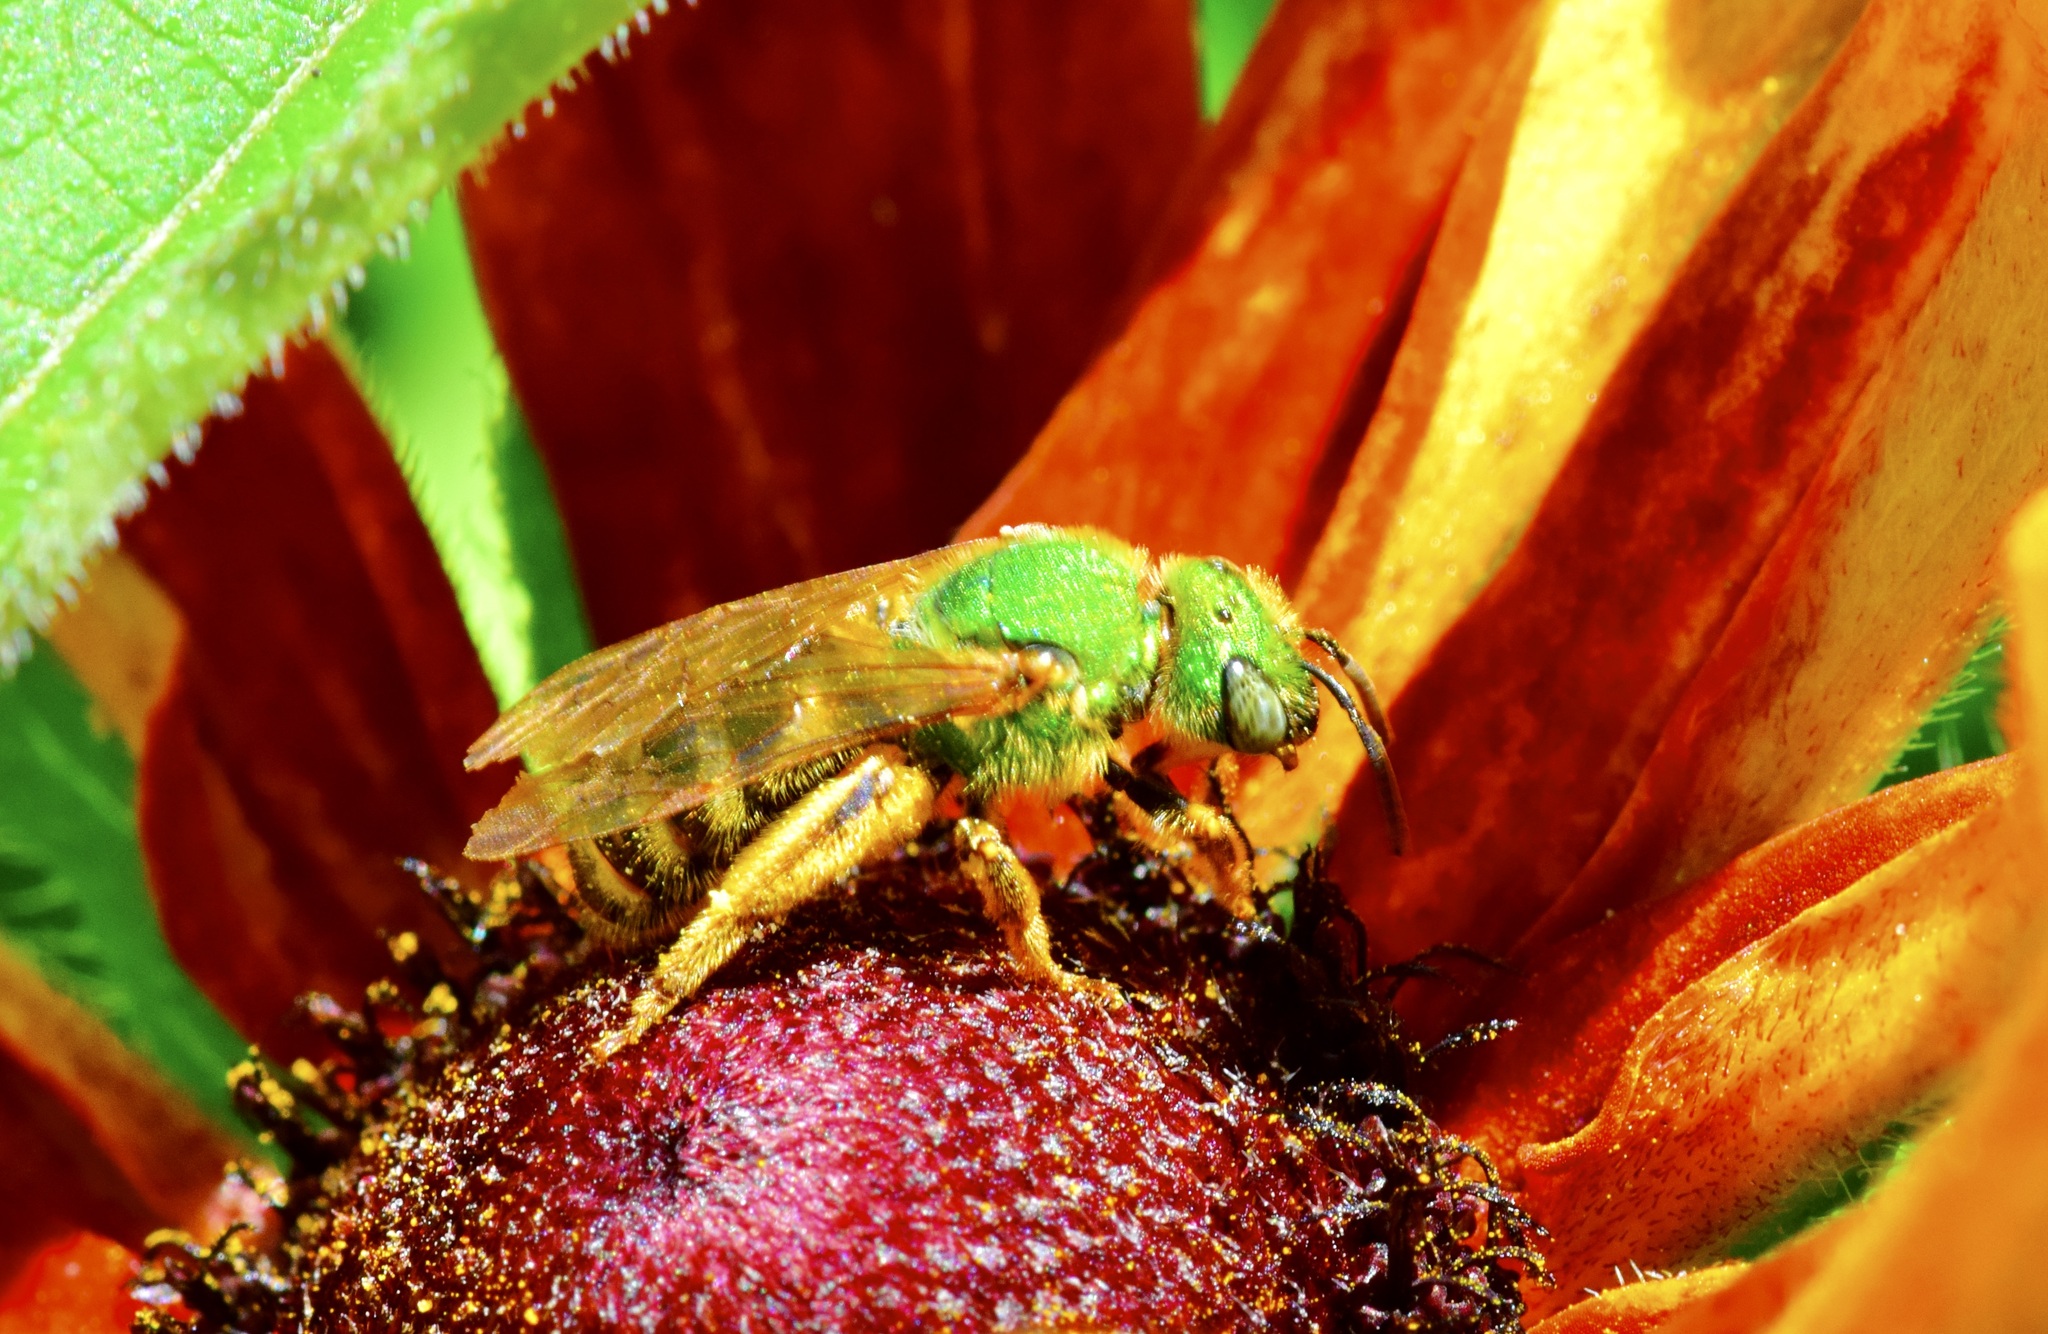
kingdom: Animalia
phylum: Arthropoda
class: Insecta
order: Hymenoptera
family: Halictidae
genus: Agapostemon
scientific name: Agapostemon virescens
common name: Bicolored striped sweat bee
